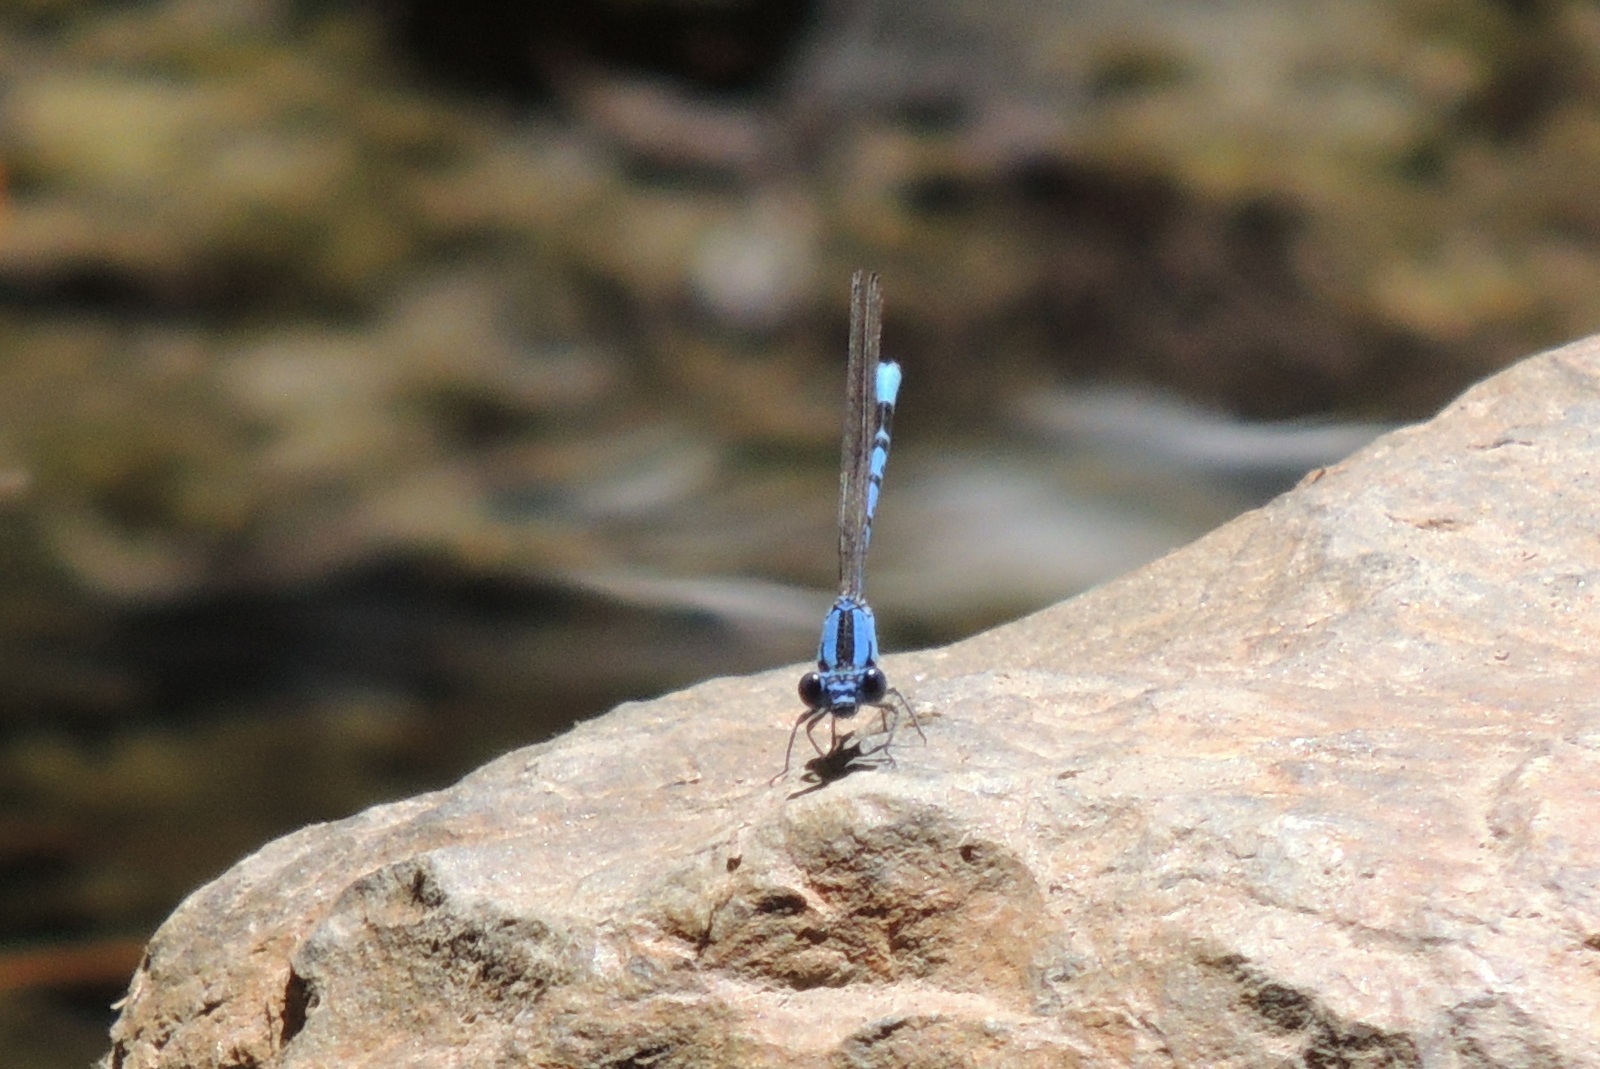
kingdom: Animalia
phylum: Arthropoda
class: Insecta
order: Odonata
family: Coenagrionidae
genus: Argia
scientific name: Argia vivida
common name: Vivid dancer
